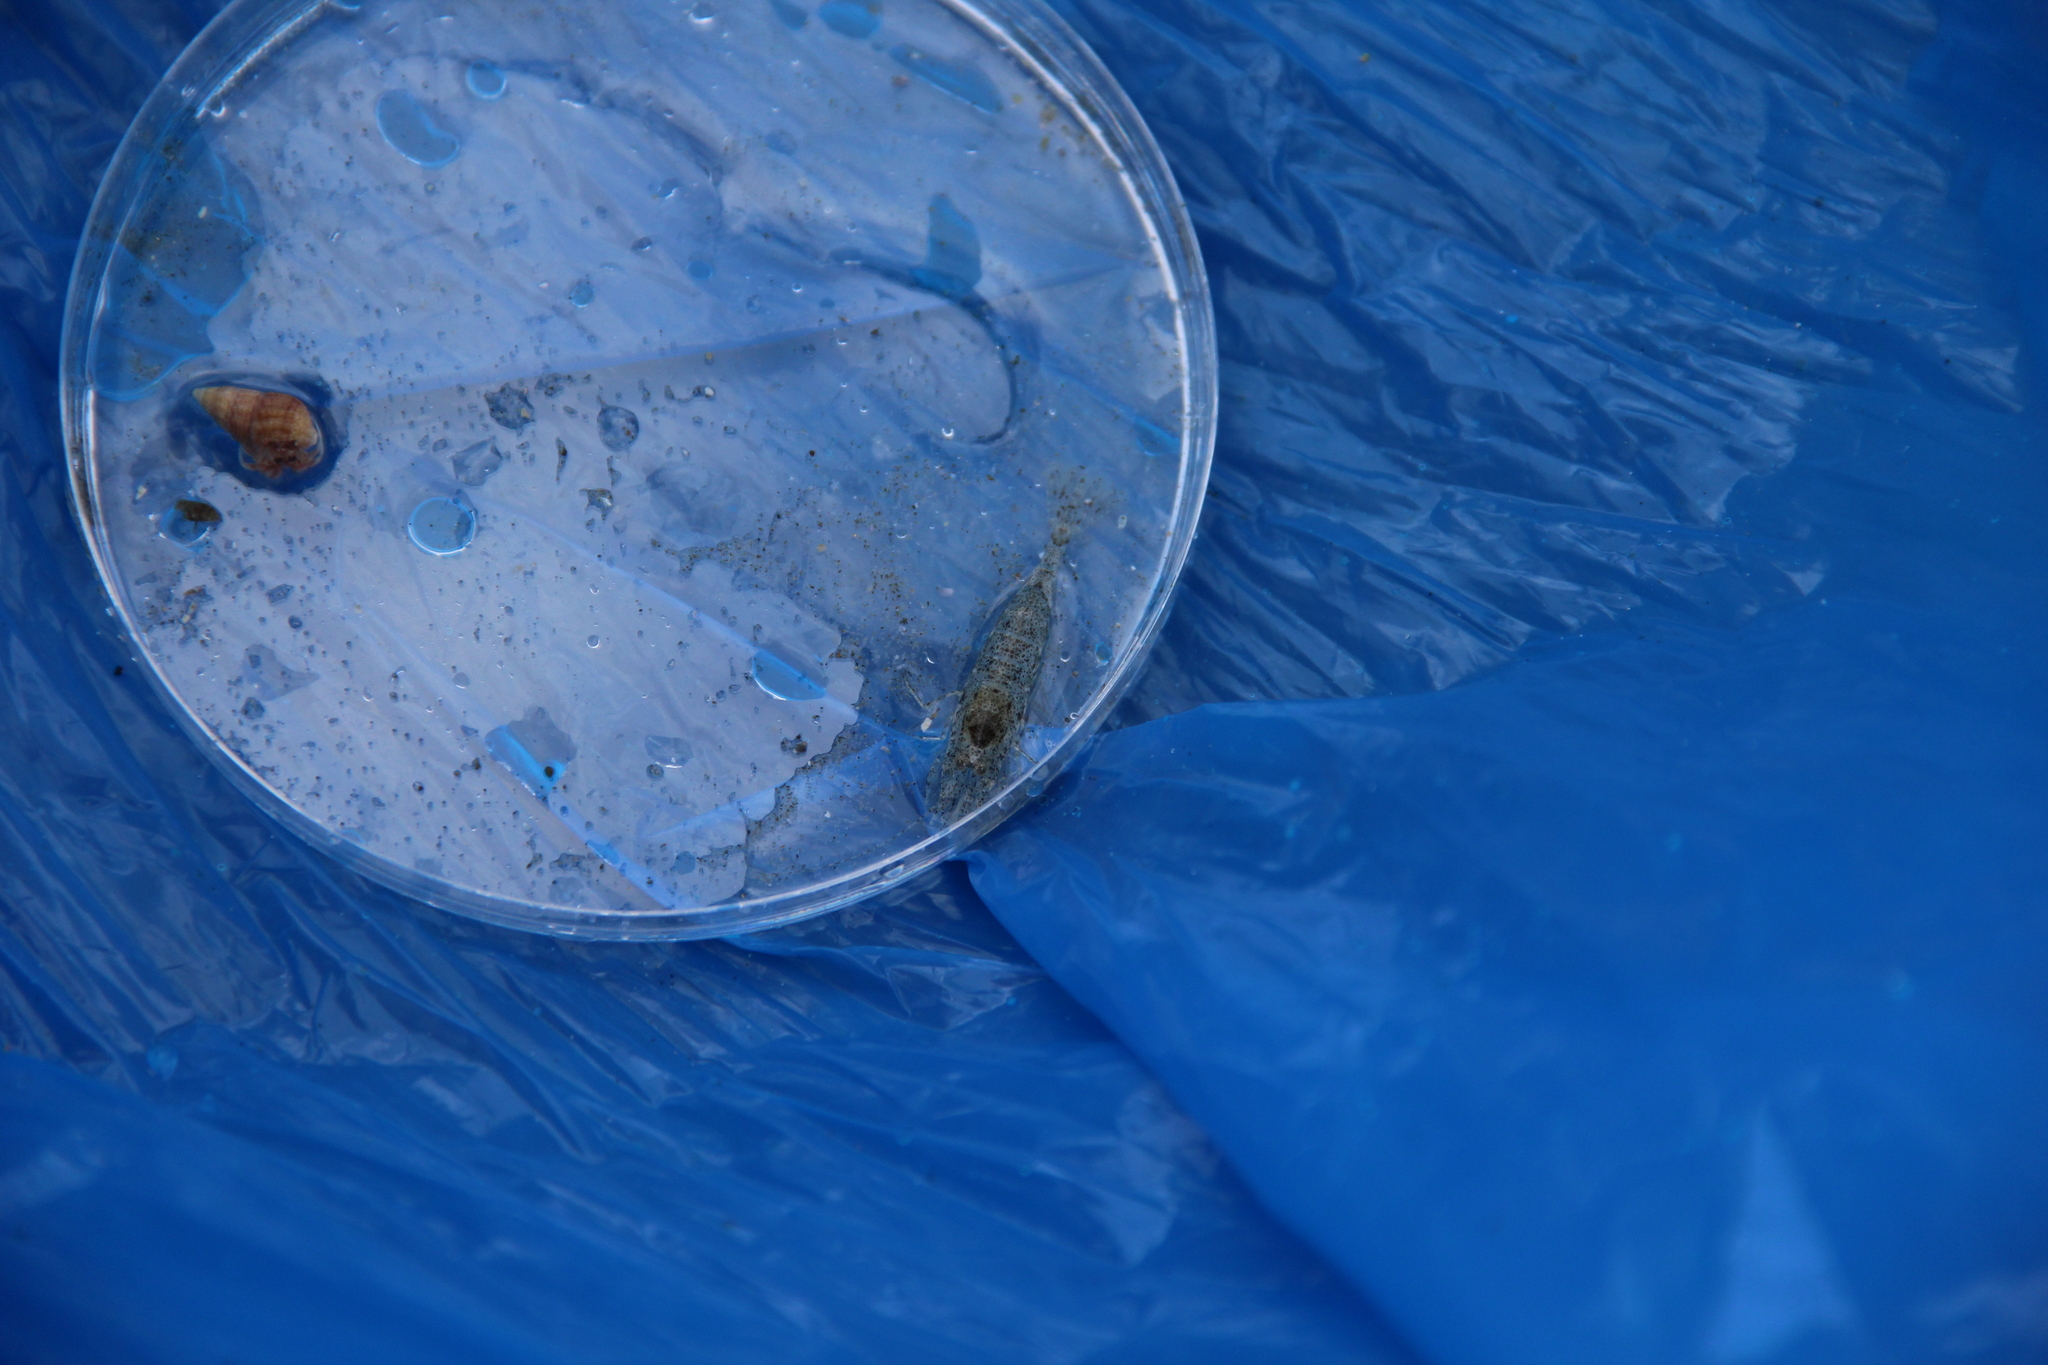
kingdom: Animalia
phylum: Arthropoda
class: Malacostraca
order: Decapoda
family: Crangonidae
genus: Crangon
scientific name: Crangon septemspinosa
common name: Bail shrimp
